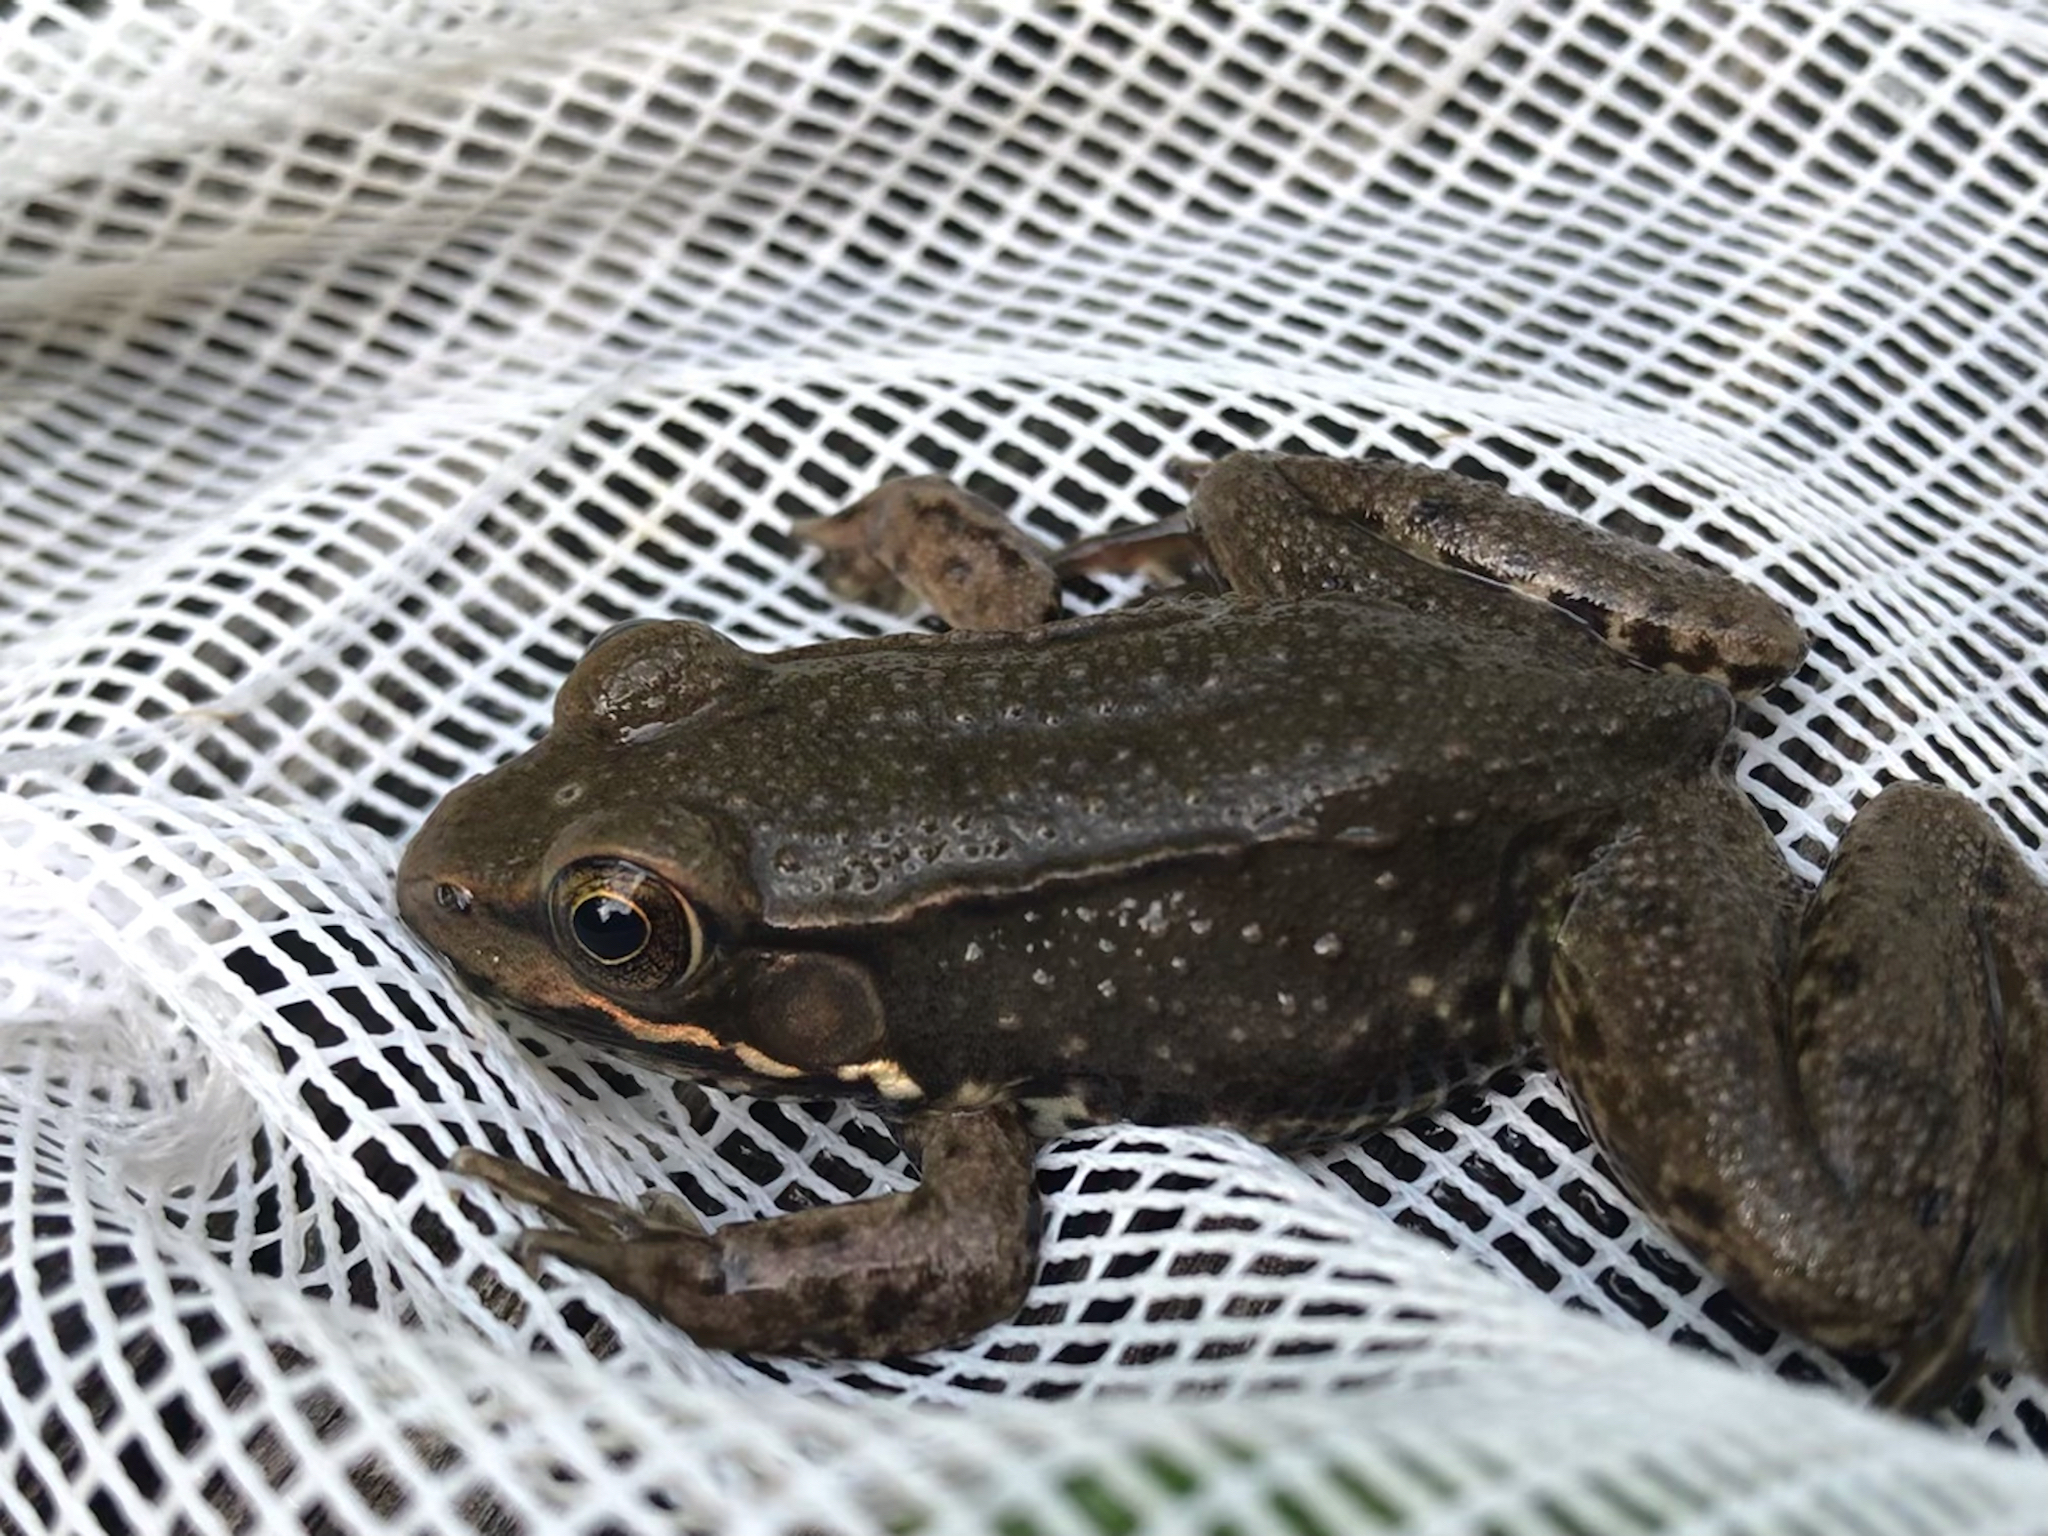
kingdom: Animalia
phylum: Chordata
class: Amphibia
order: Anura
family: Ranidae
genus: Lithobates
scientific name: Lithobates clamitans
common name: Green frog
